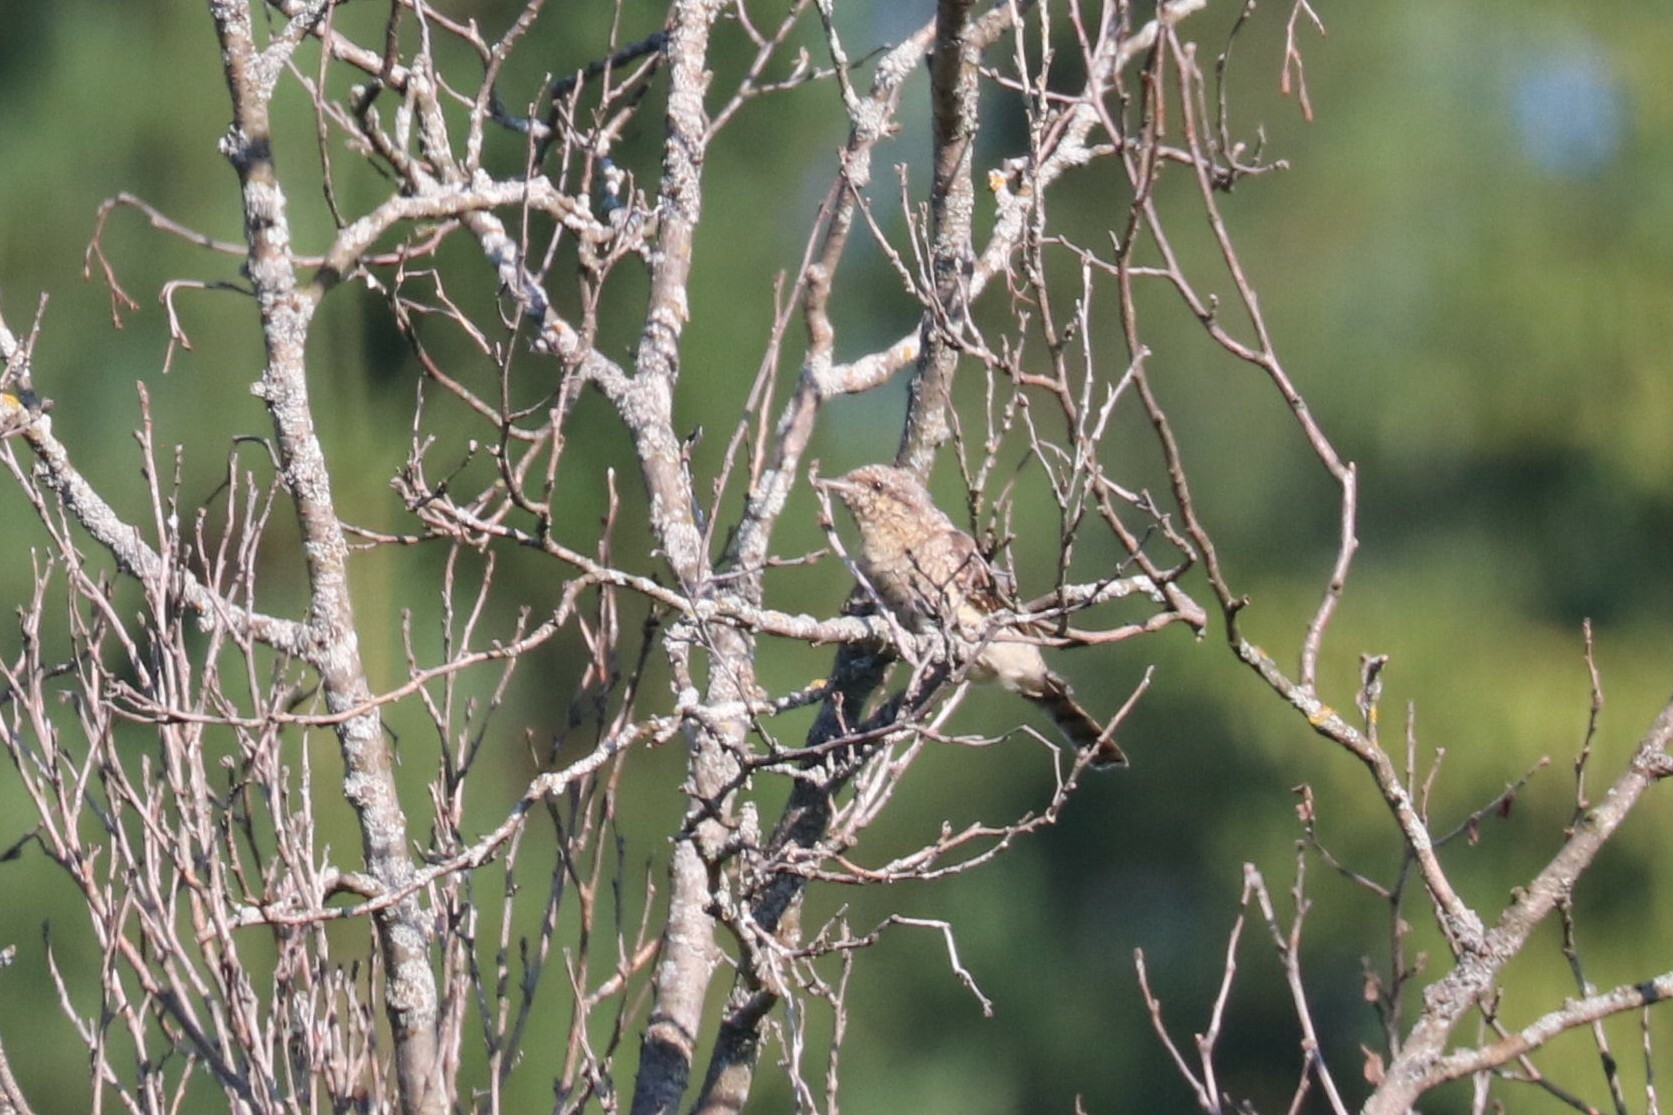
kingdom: Animalia
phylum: Chordata
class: Aves
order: Piciformes
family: Picidae
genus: Jynx
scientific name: Jynx torquilla
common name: Eurasian wryneck
